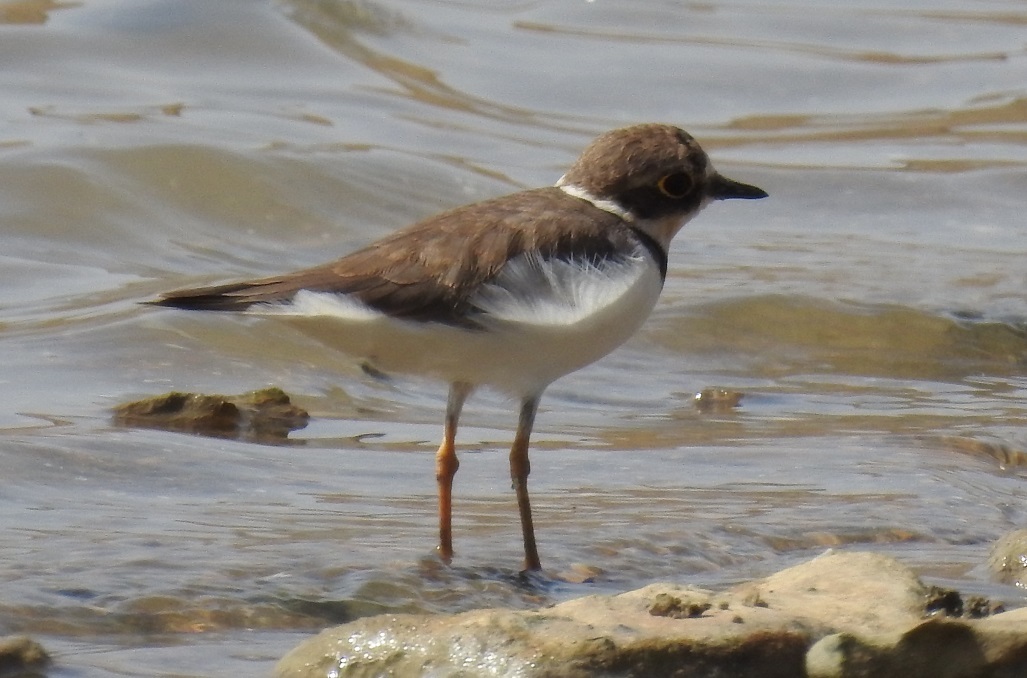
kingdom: Animalia
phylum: Chordata
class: Aves
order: Charadriiformes
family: Charadriidae
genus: Charadrius
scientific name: Charadrius dubius
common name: Little ringed plover
